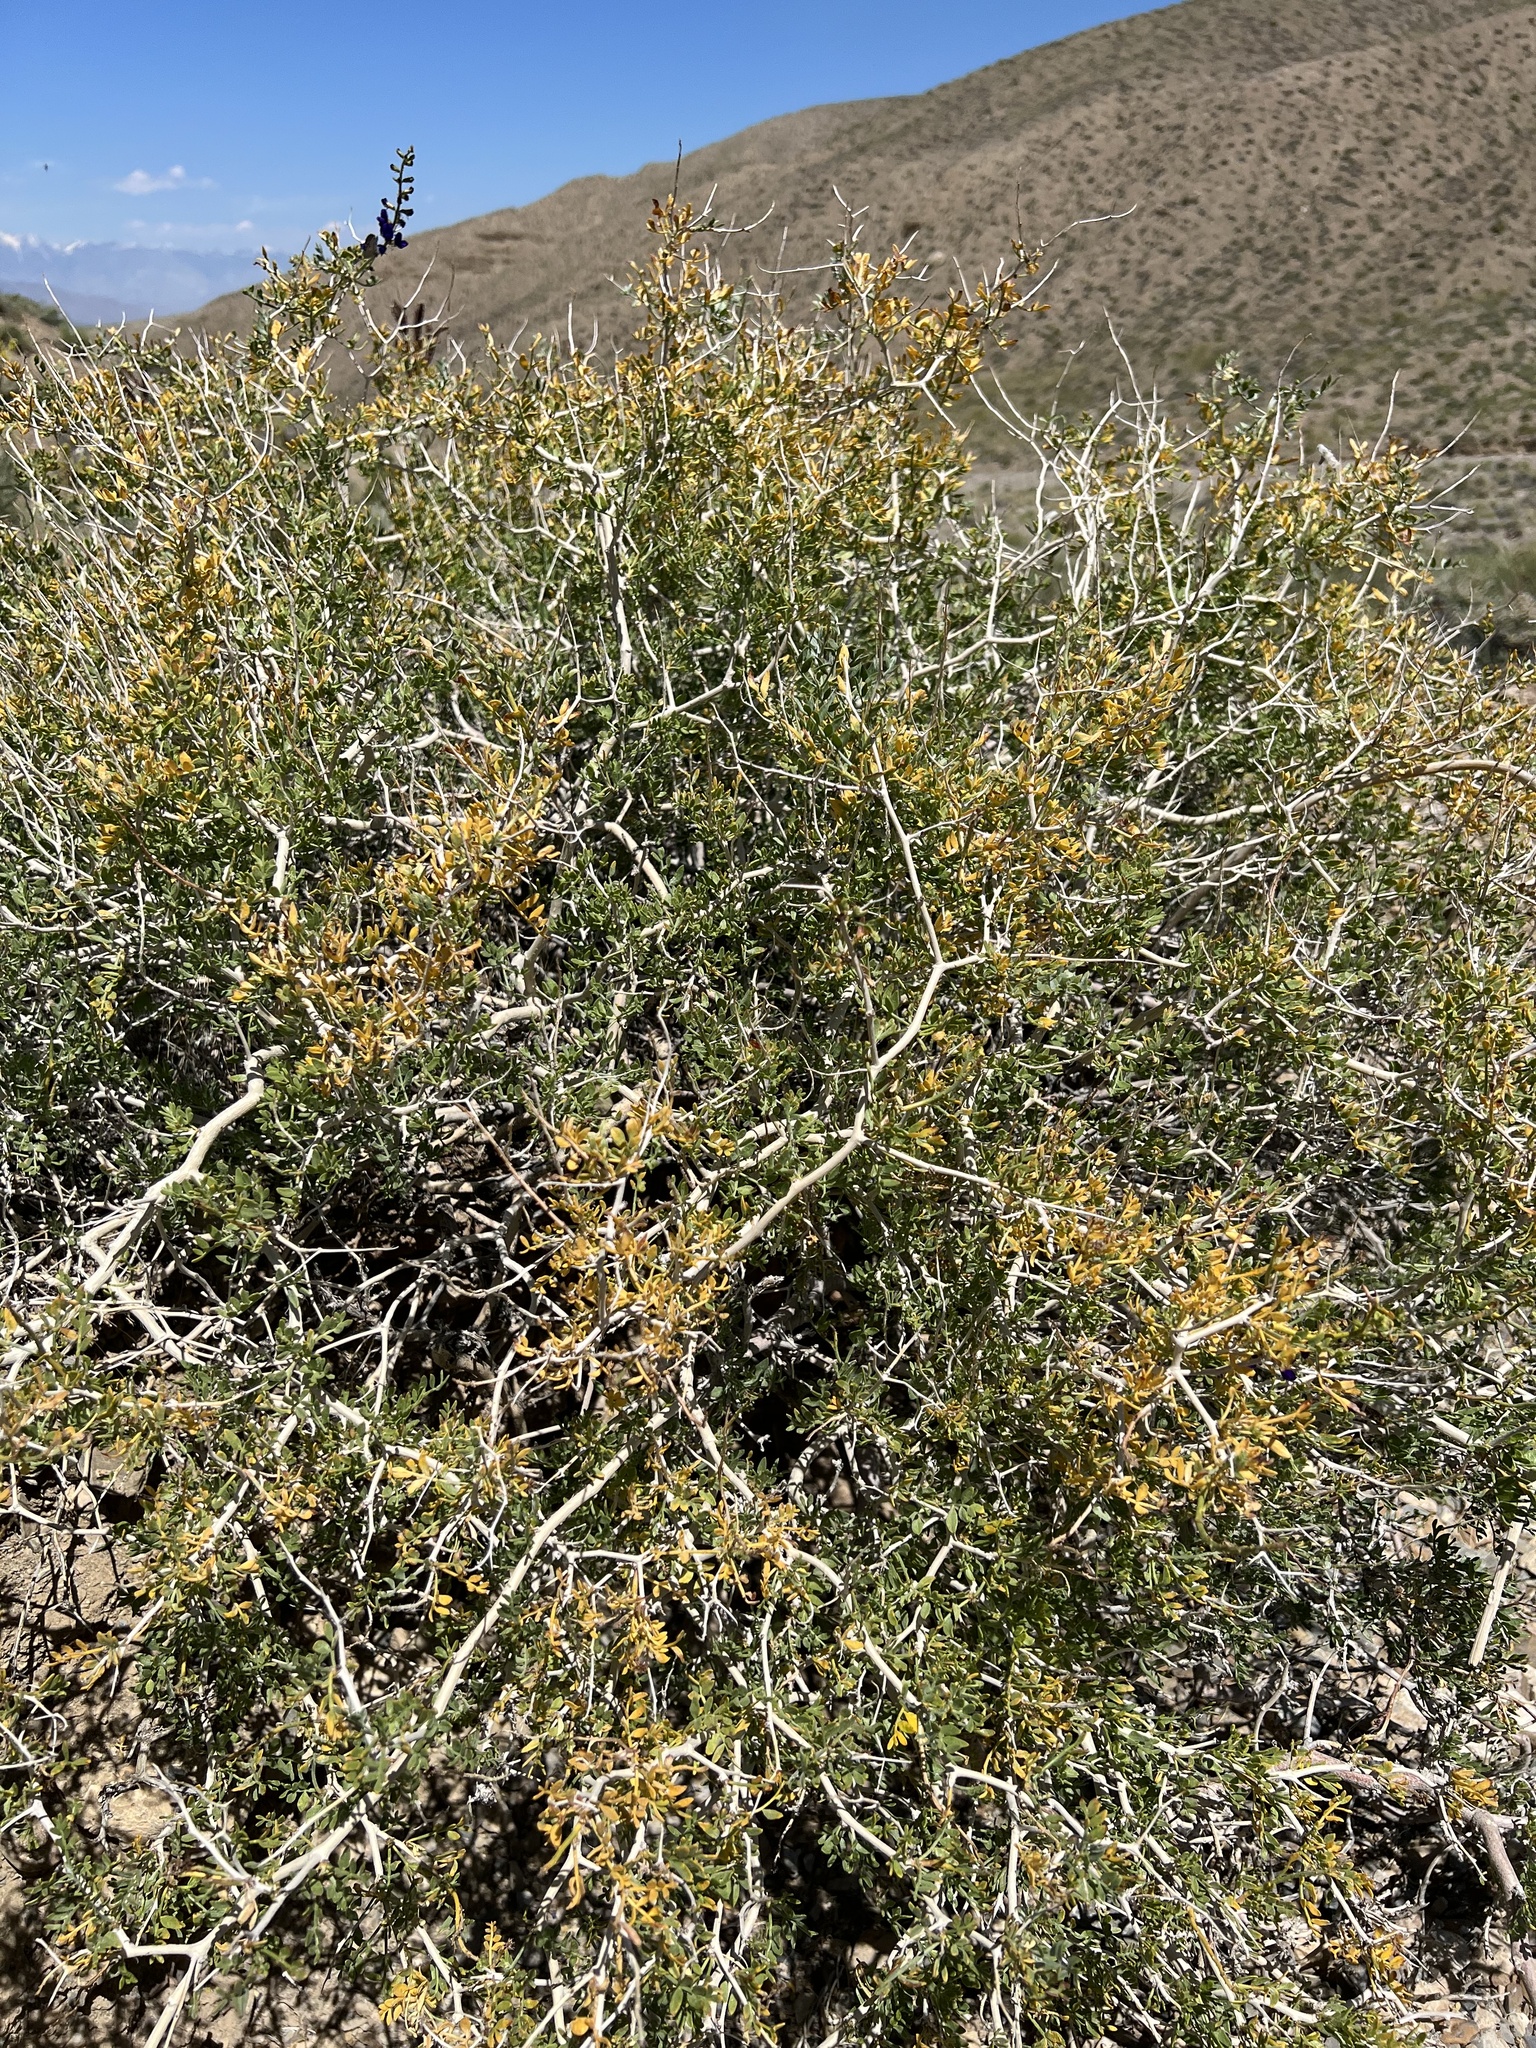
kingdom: Plantae
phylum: Tracheophyta
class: Magnoliopsida
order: Fabales
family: Fabaceae
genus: Psorothamnus
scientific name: Psorothamnus arborescens
